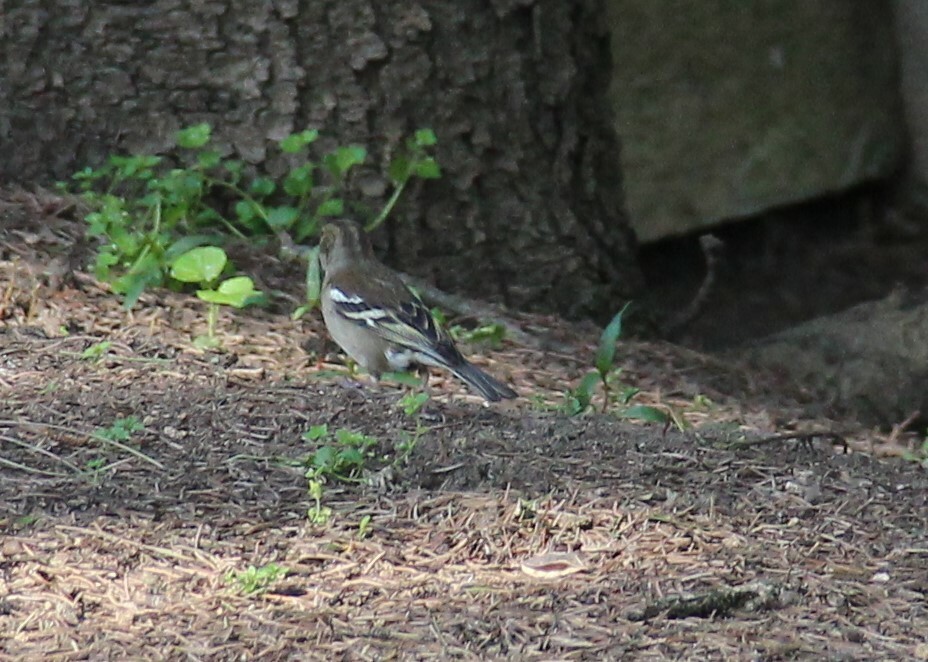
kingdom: Animalia
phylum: Chordata
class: Aves
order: Passeriformes
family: Fringillidae
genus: Fringilla
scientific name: Fringilla coelebs
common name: Common chaffinch
